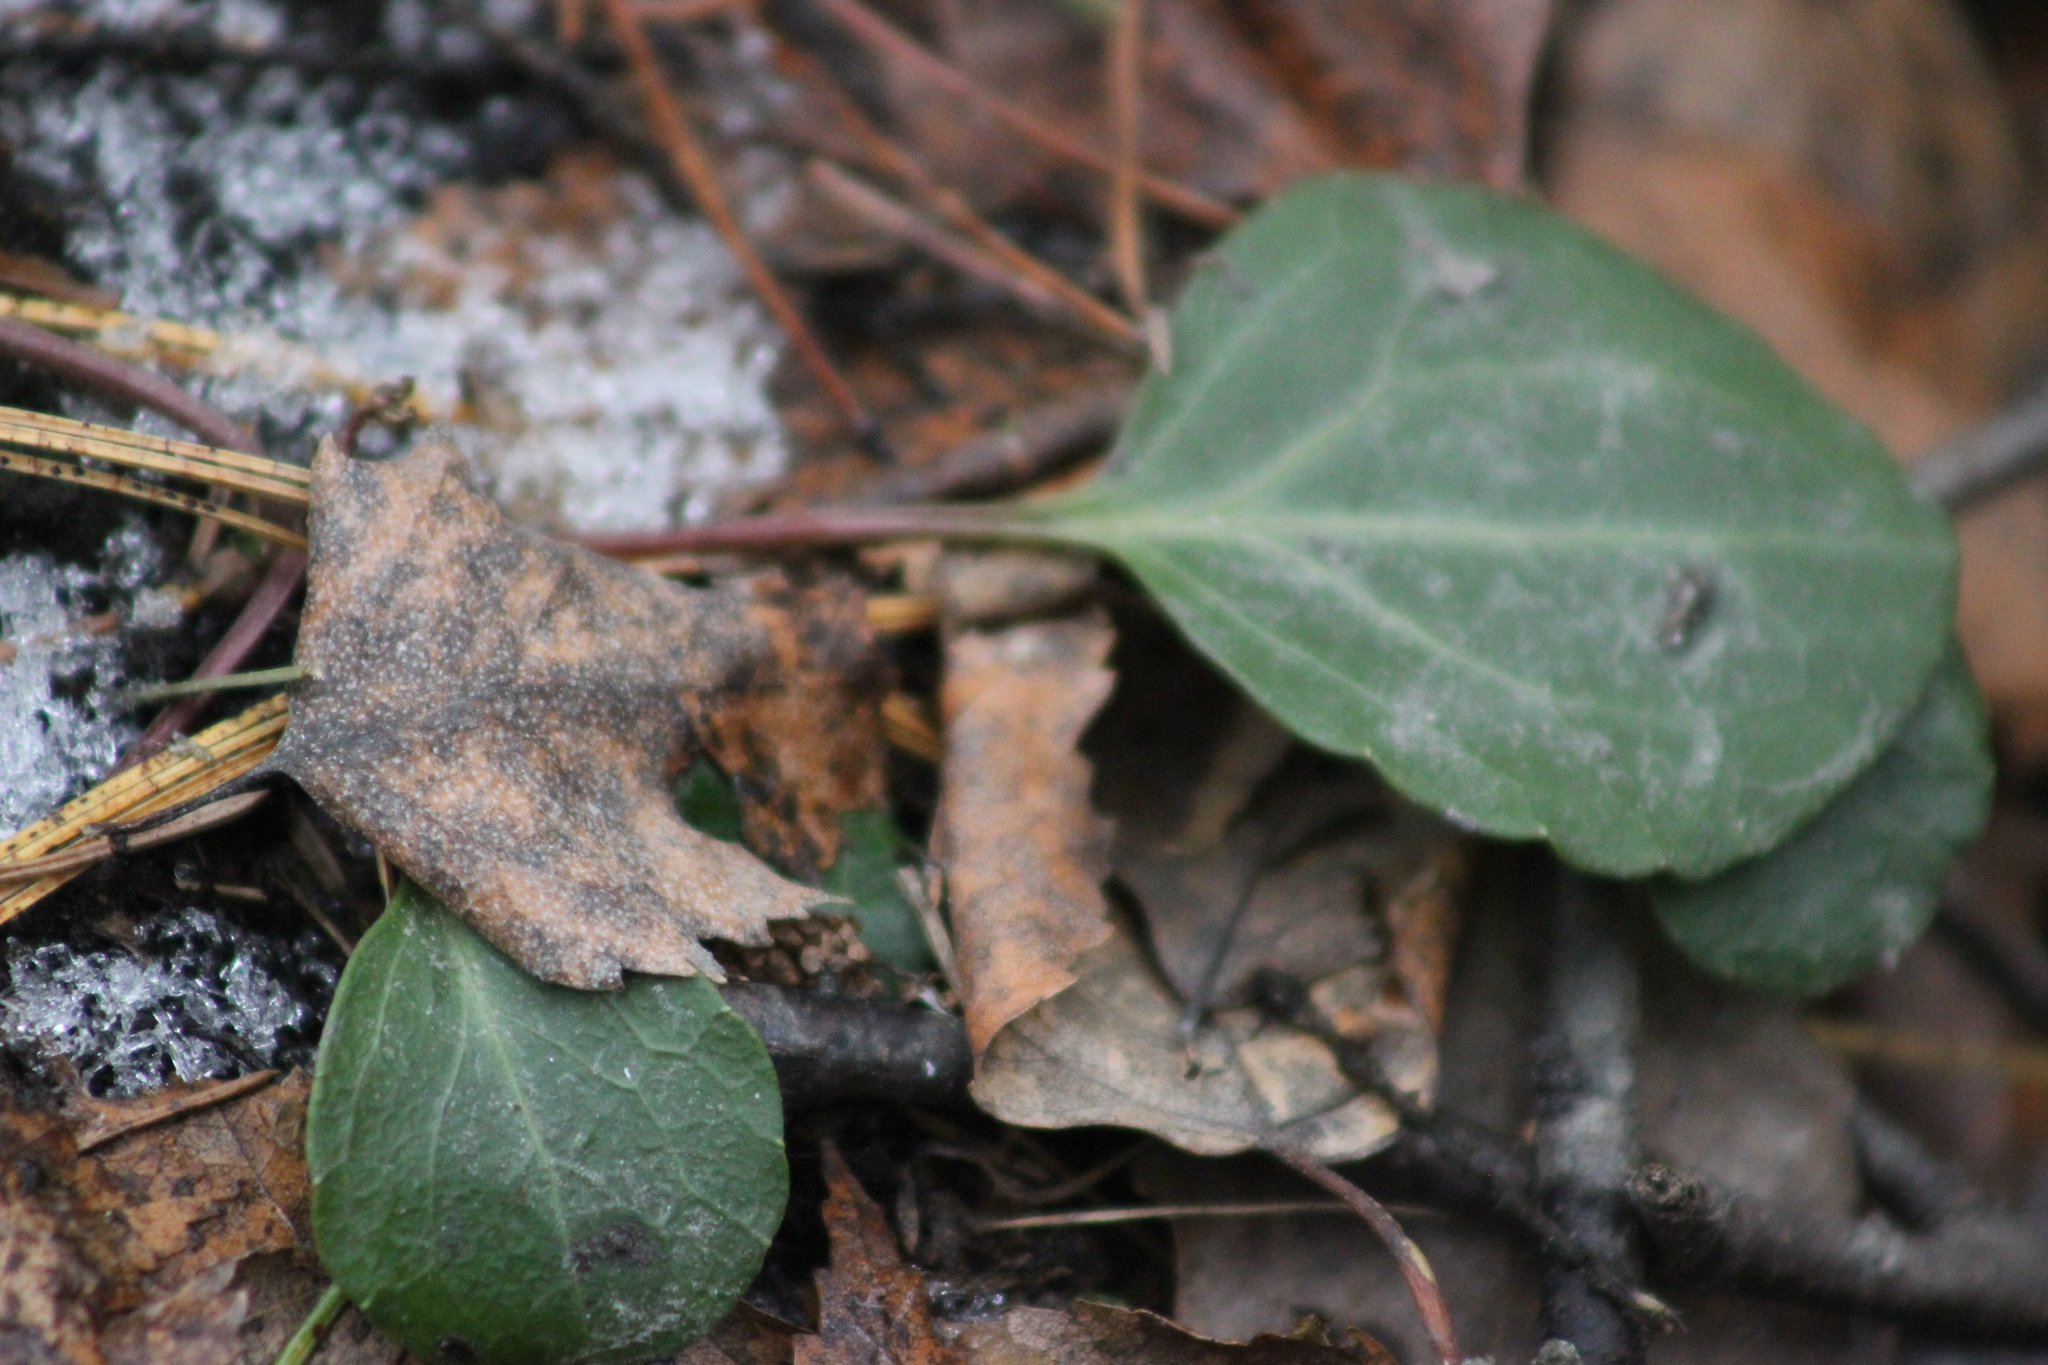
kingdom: Plantae
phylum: Tracheophyta
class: Magnoliopsida
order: Ericales
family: Ericaceae
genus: Pyrola
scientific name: Pyrola chlorantha
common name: Green wintergreen
